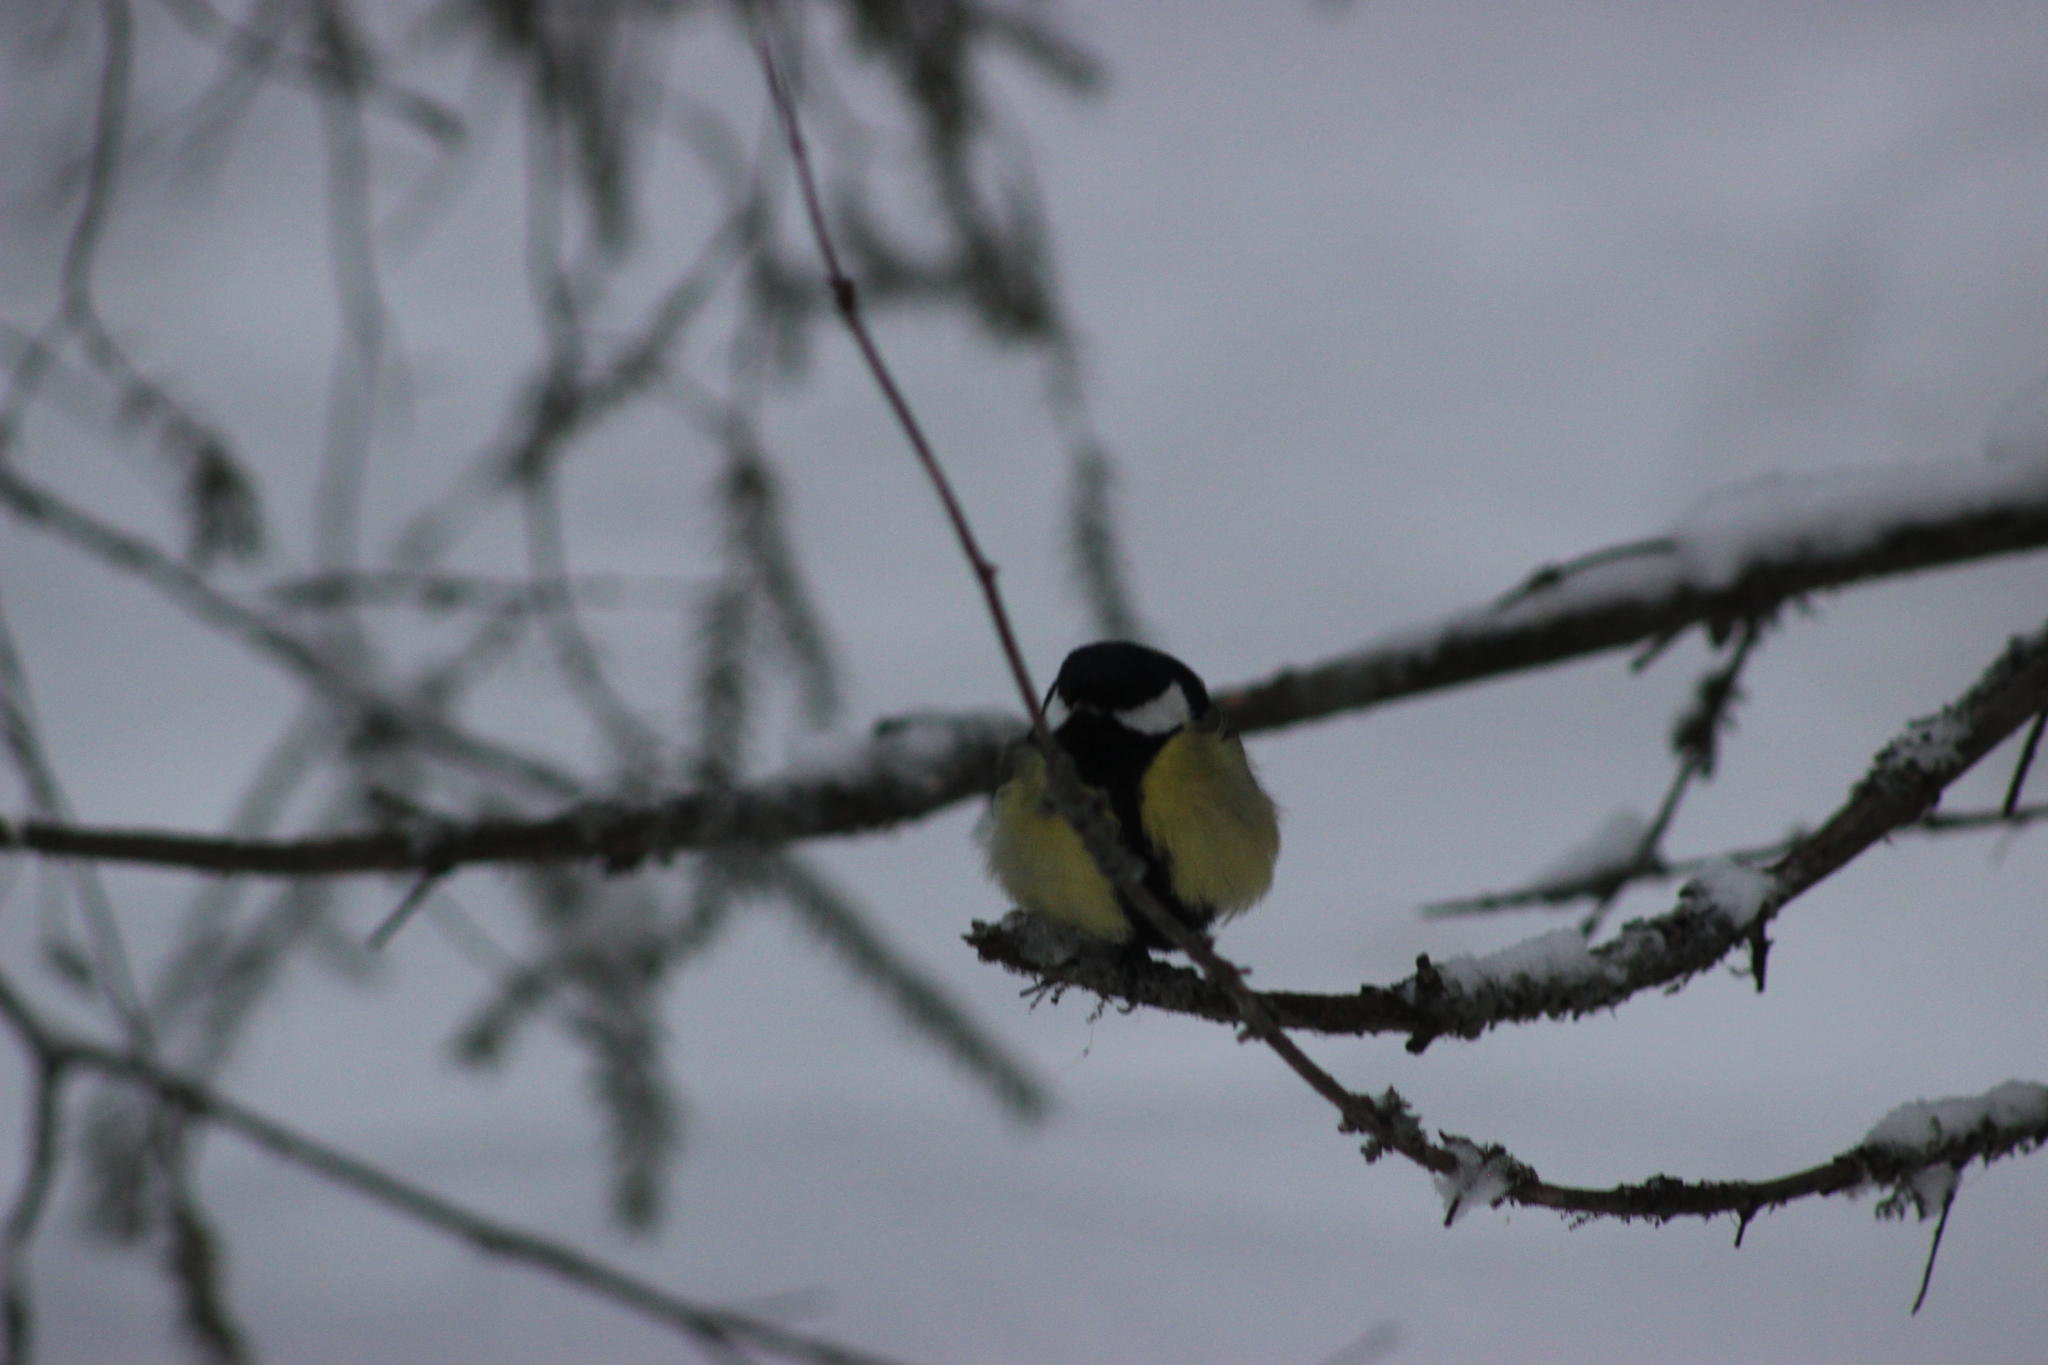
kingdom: Animalia
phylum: Chordata
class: Aves
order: Passeriformes
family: Paridae
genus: Parus
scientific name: Parus major
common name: Great tit
